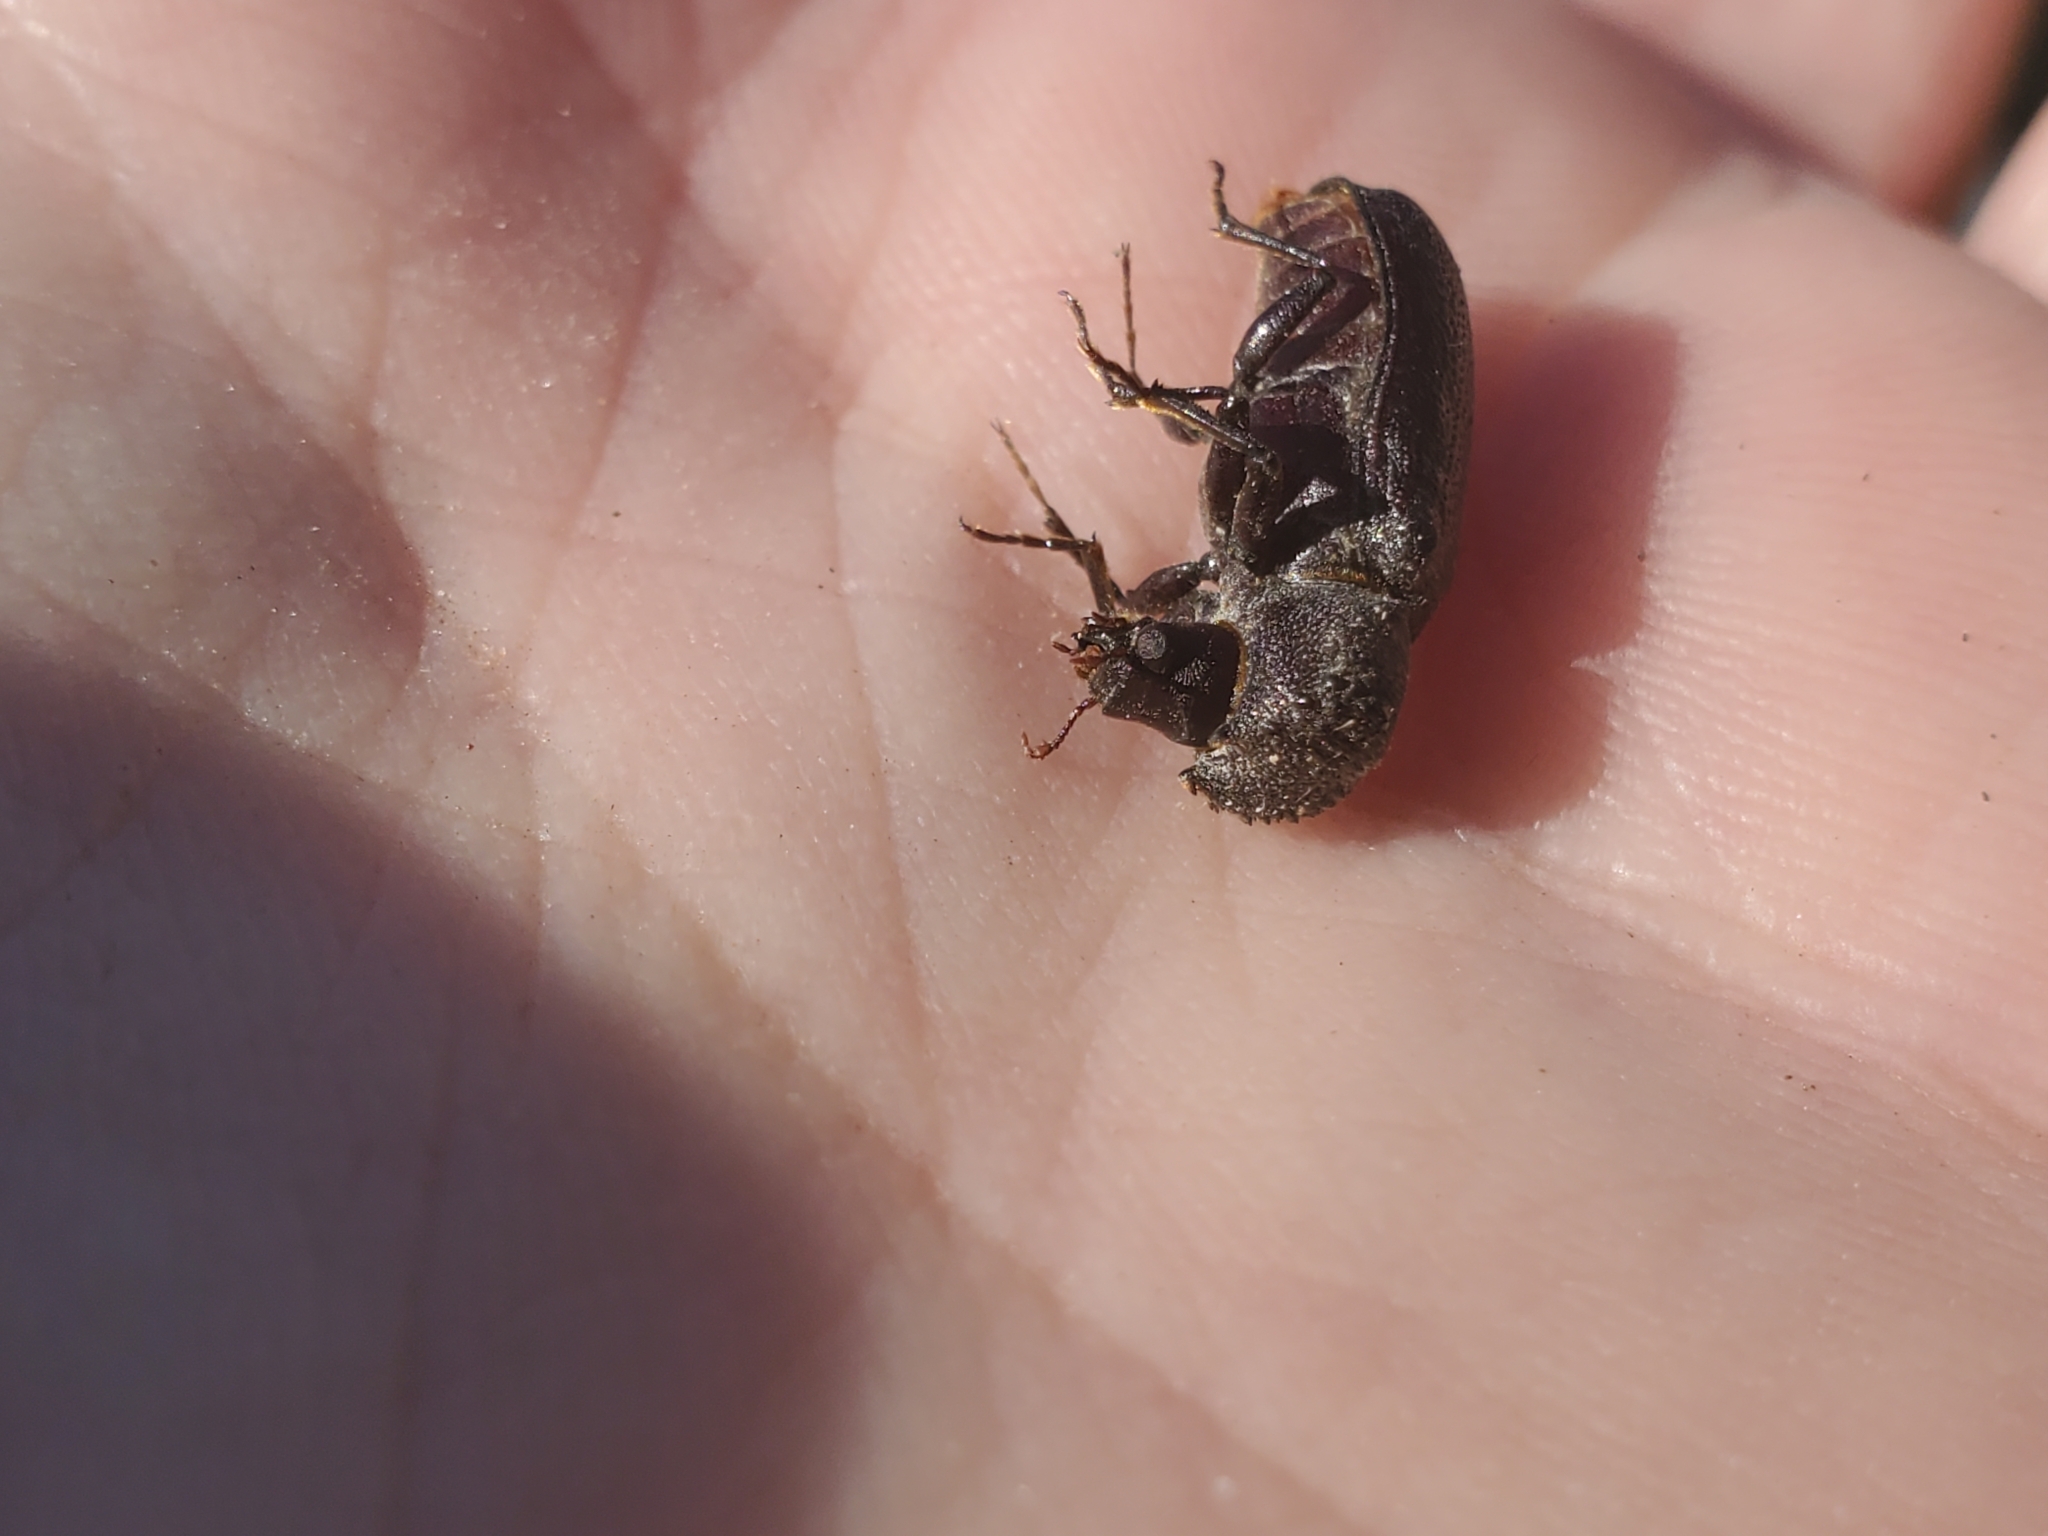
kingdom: Animalia
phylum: Arthropoda
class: Insecta
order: Coleoptera
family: Bostrichidae
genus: Apatides
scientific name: Apatides fortis
